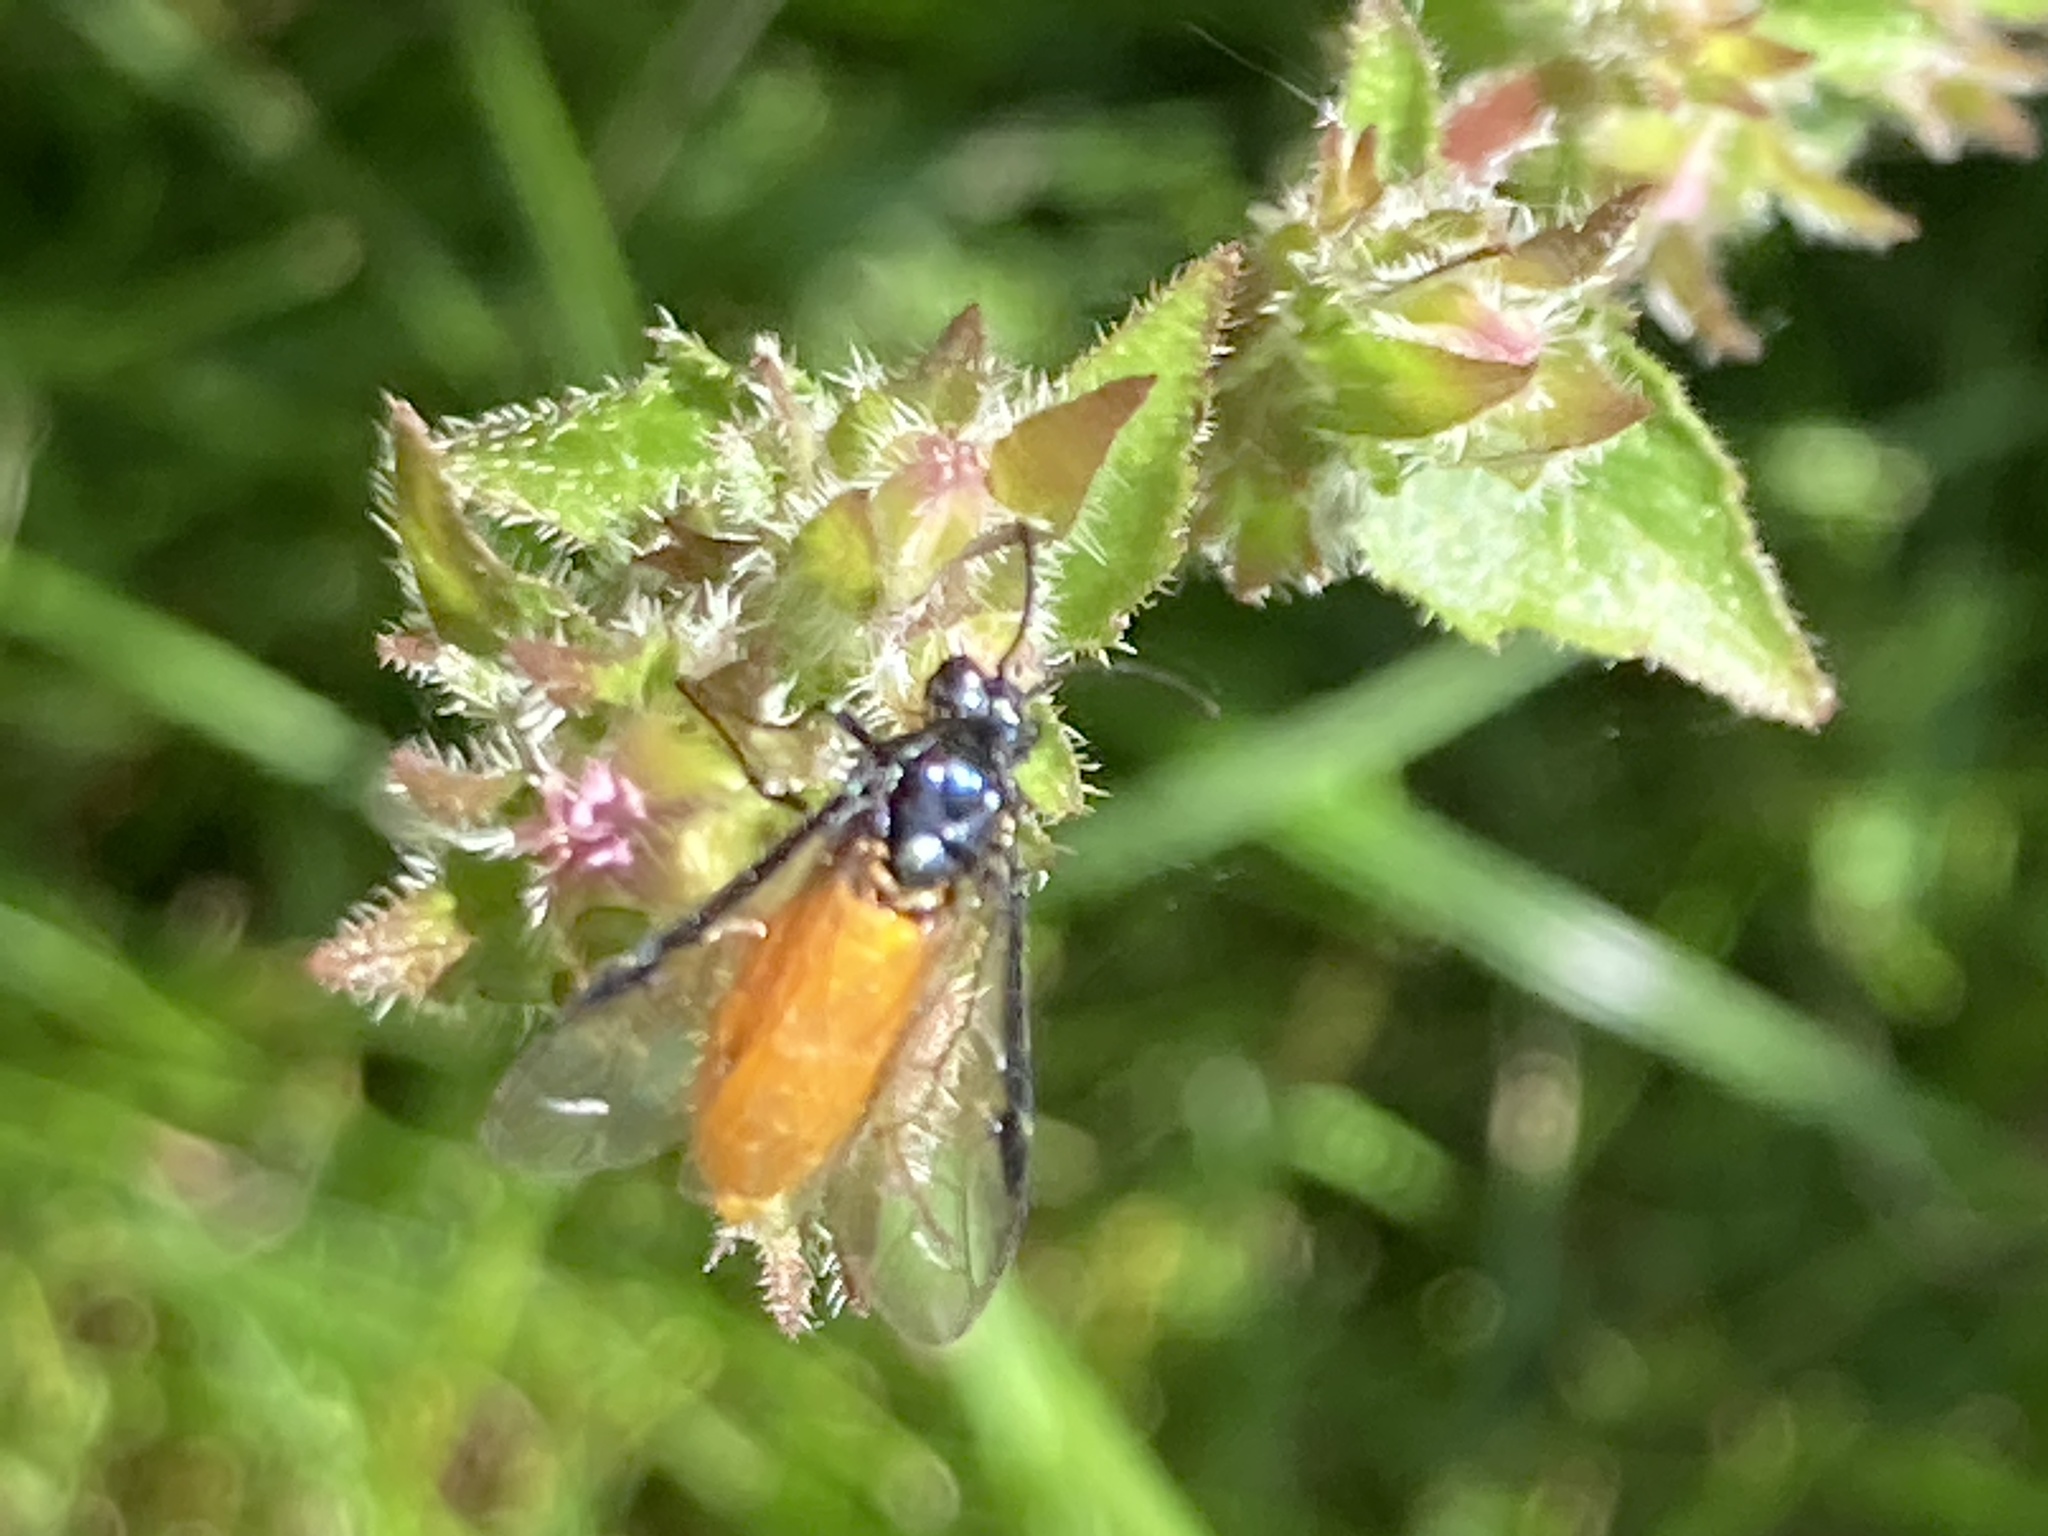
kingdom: Animalia
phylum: Arthropoda
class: Insecta
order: Hymenoptera
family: Argidae
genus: Arge
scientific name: Arge pagana
